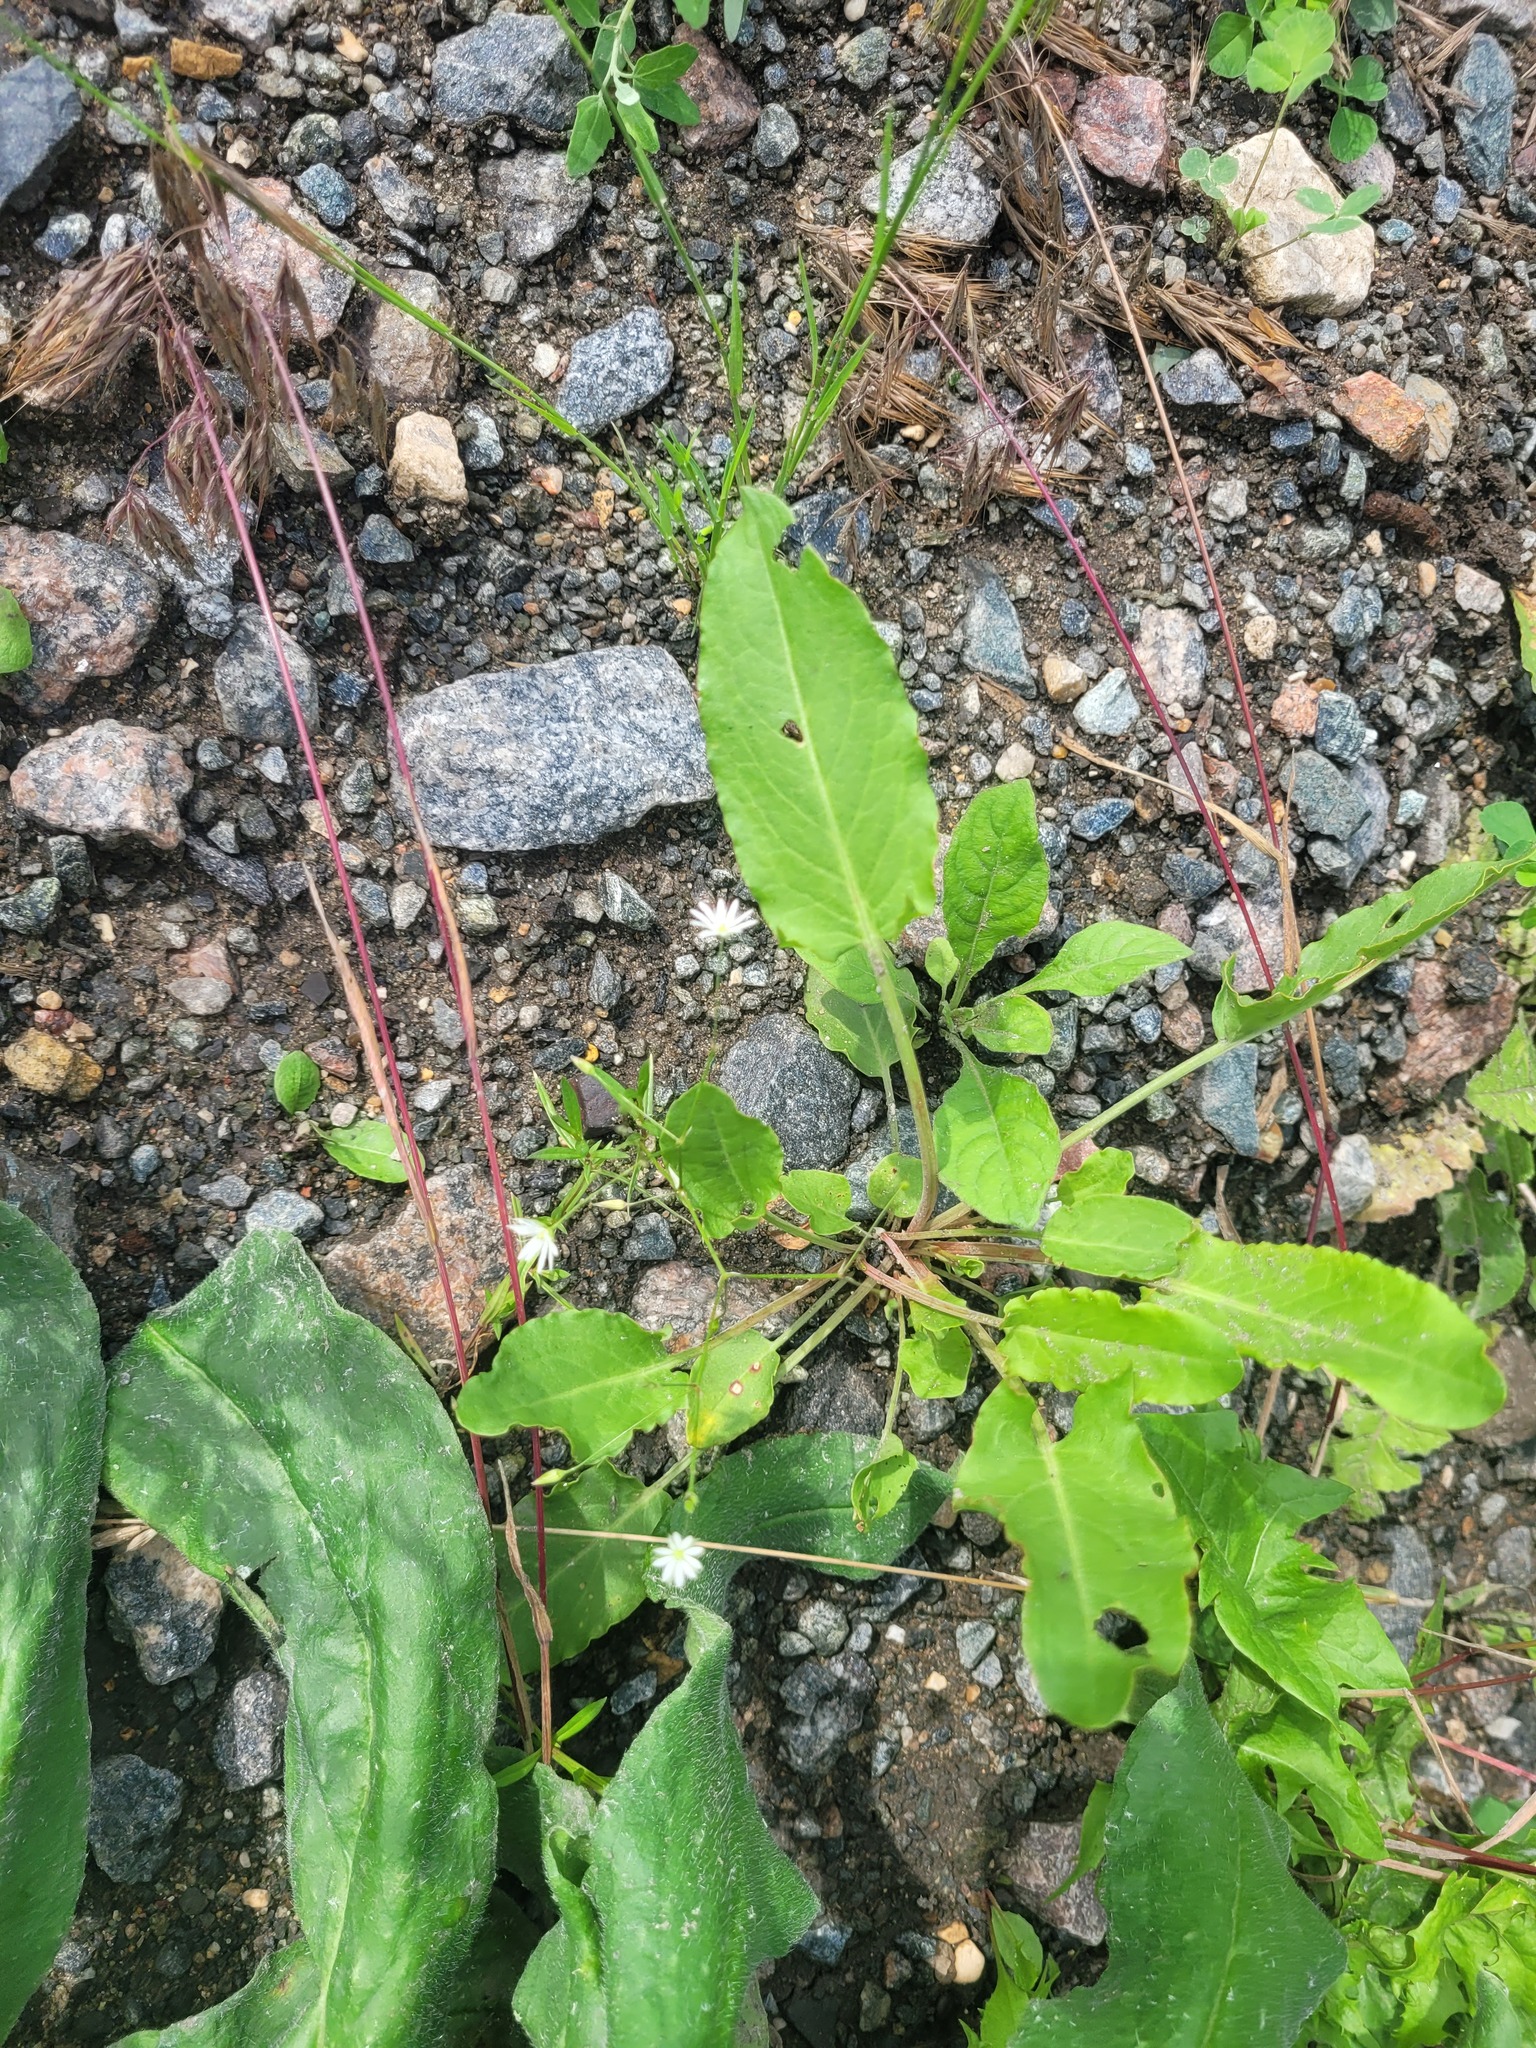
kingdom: Plantae
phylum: Tracheophyta
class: Magnoliopsida
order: Caryophyllales
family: Caryophyllaceae
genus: Stellaria
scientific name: Stellaria graminea
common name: Grass-like starwort
